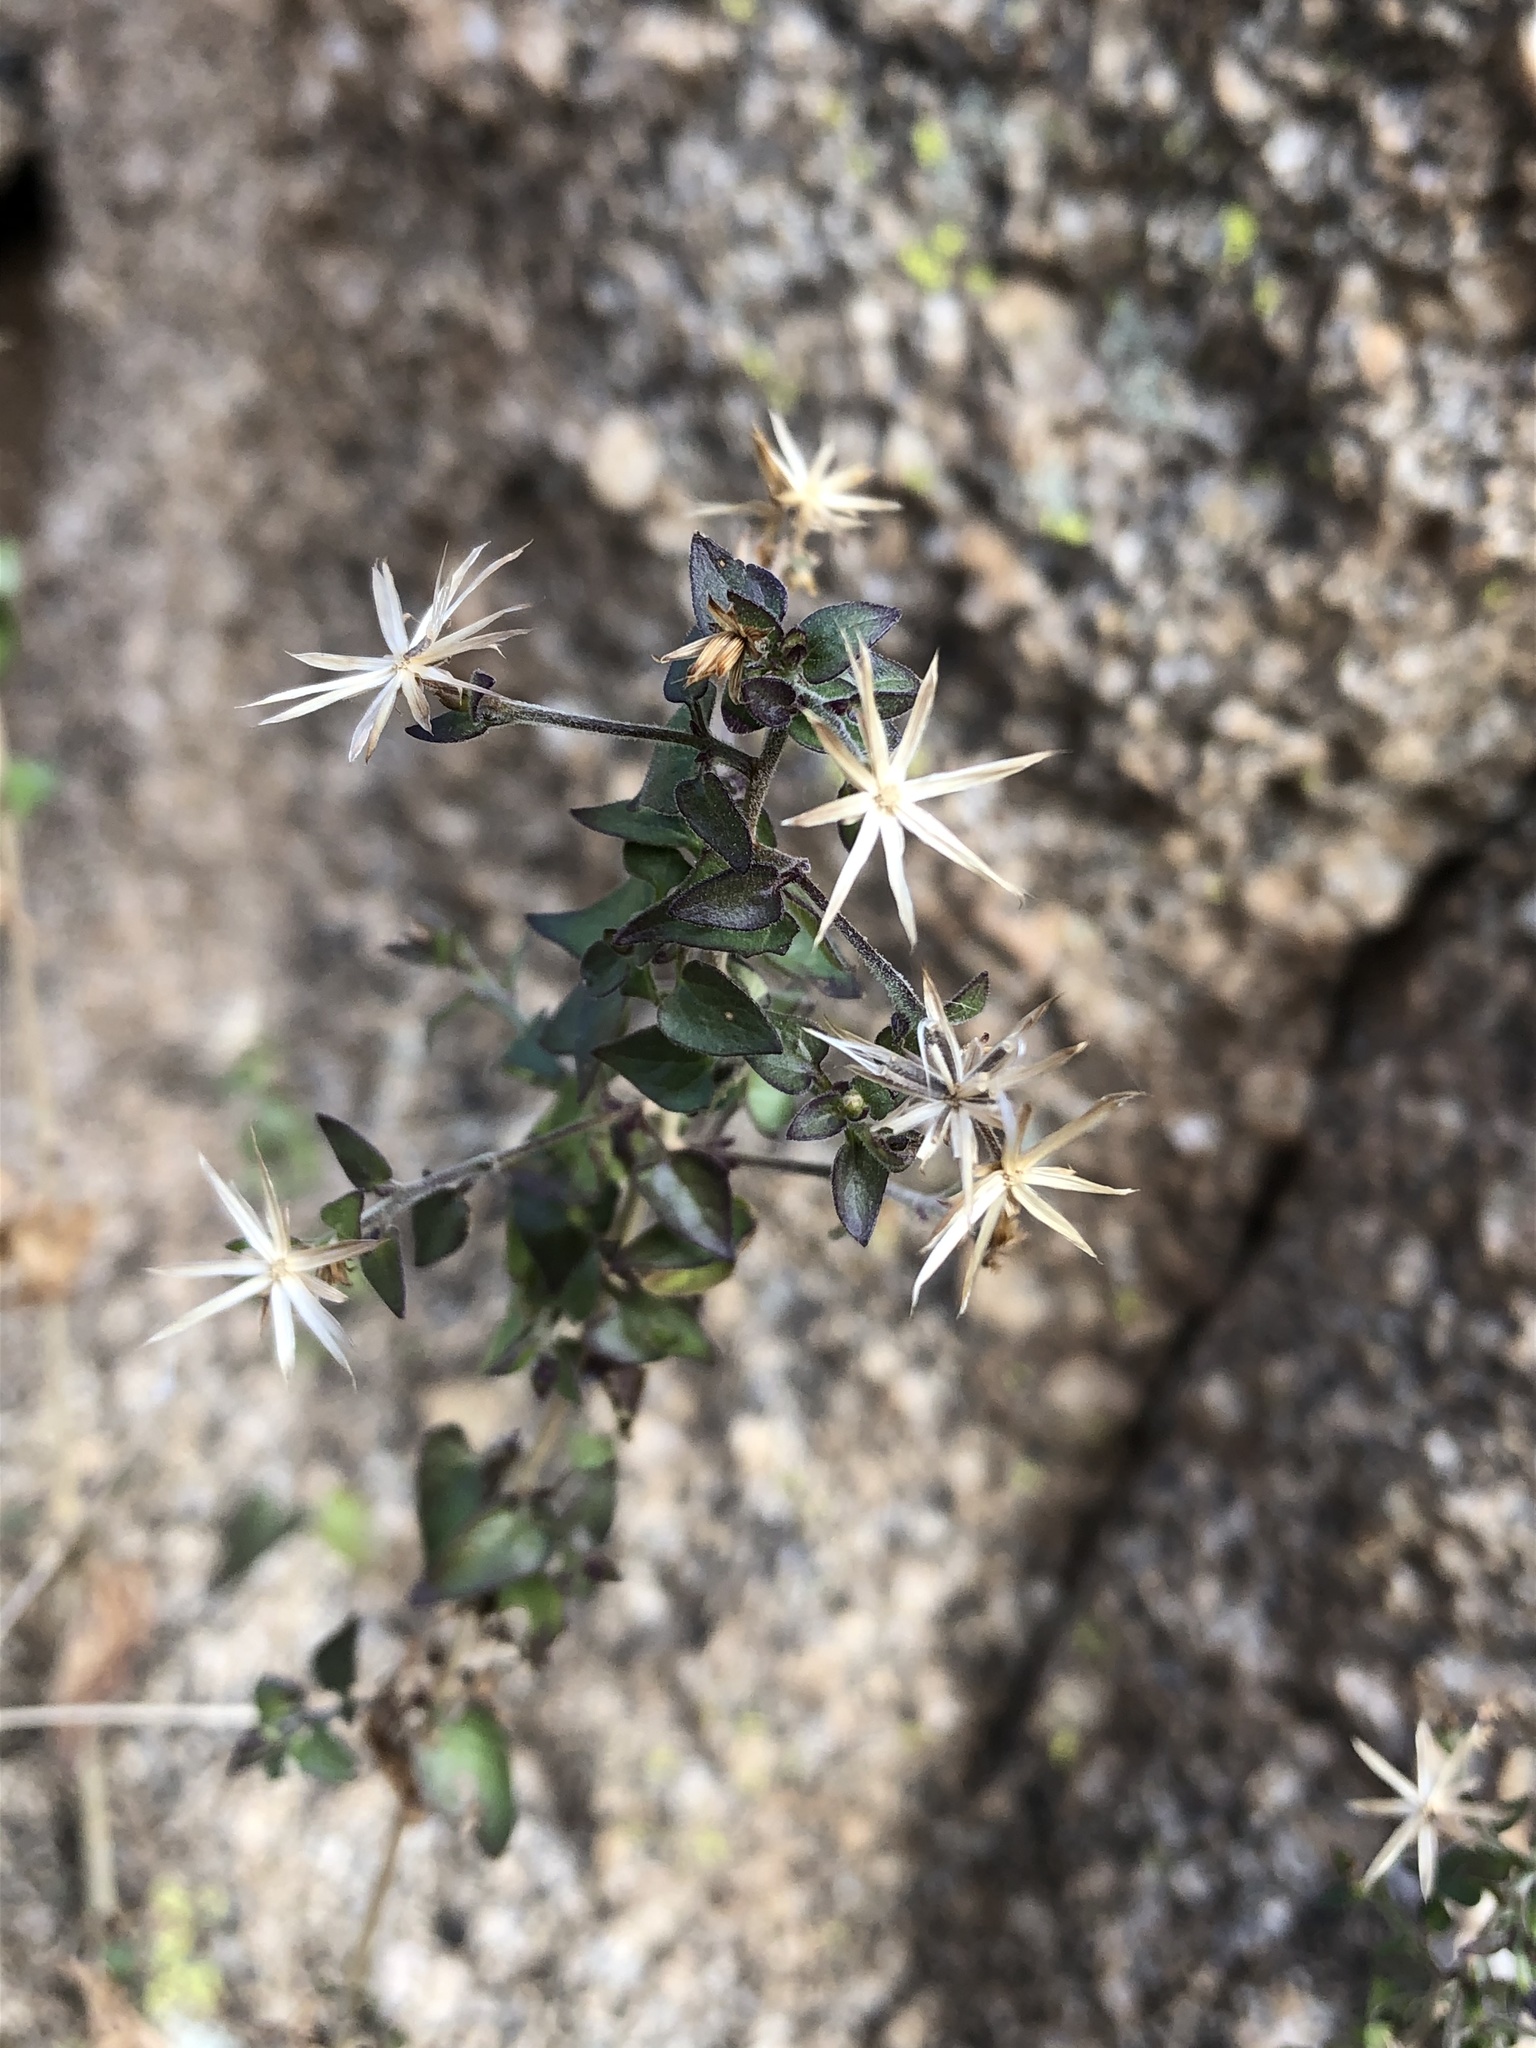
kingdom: Plantae
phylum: Tracheophyta
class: Magnoliopsida
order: Asterales
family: Asteraceae
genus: Brickellia
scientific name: Brickellia coulteri
